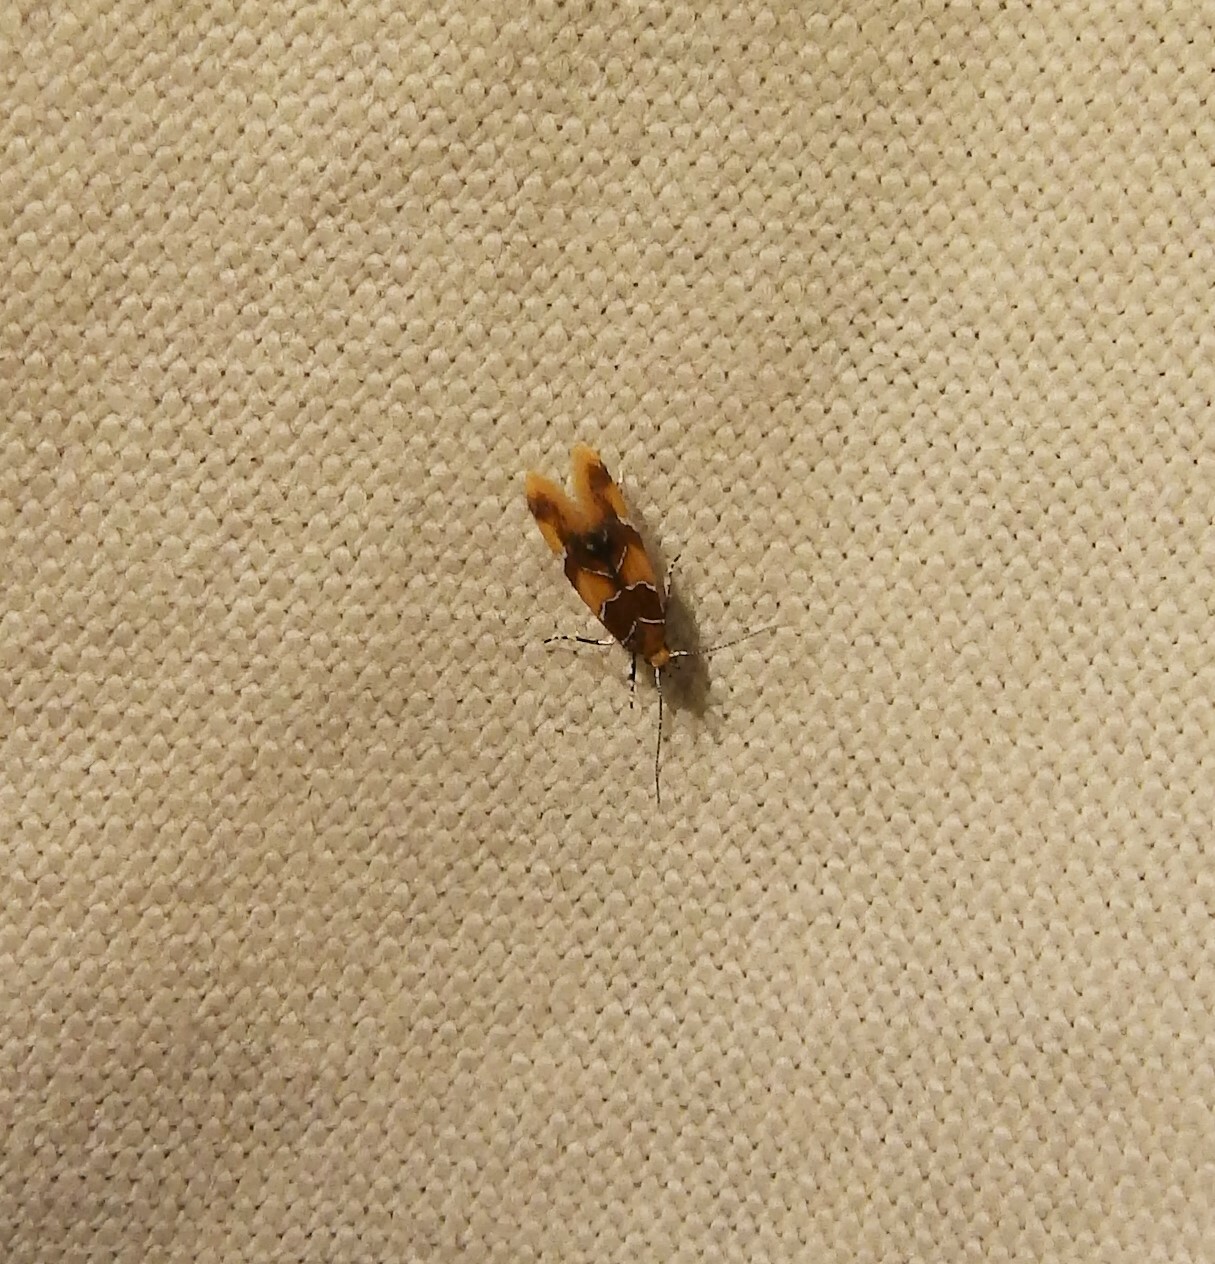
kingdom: Animalia
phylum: Arthropoda
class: Insecta
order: Lepidoptera
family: Oecophoridae
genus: Callima
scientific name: Callima argenticinctella
